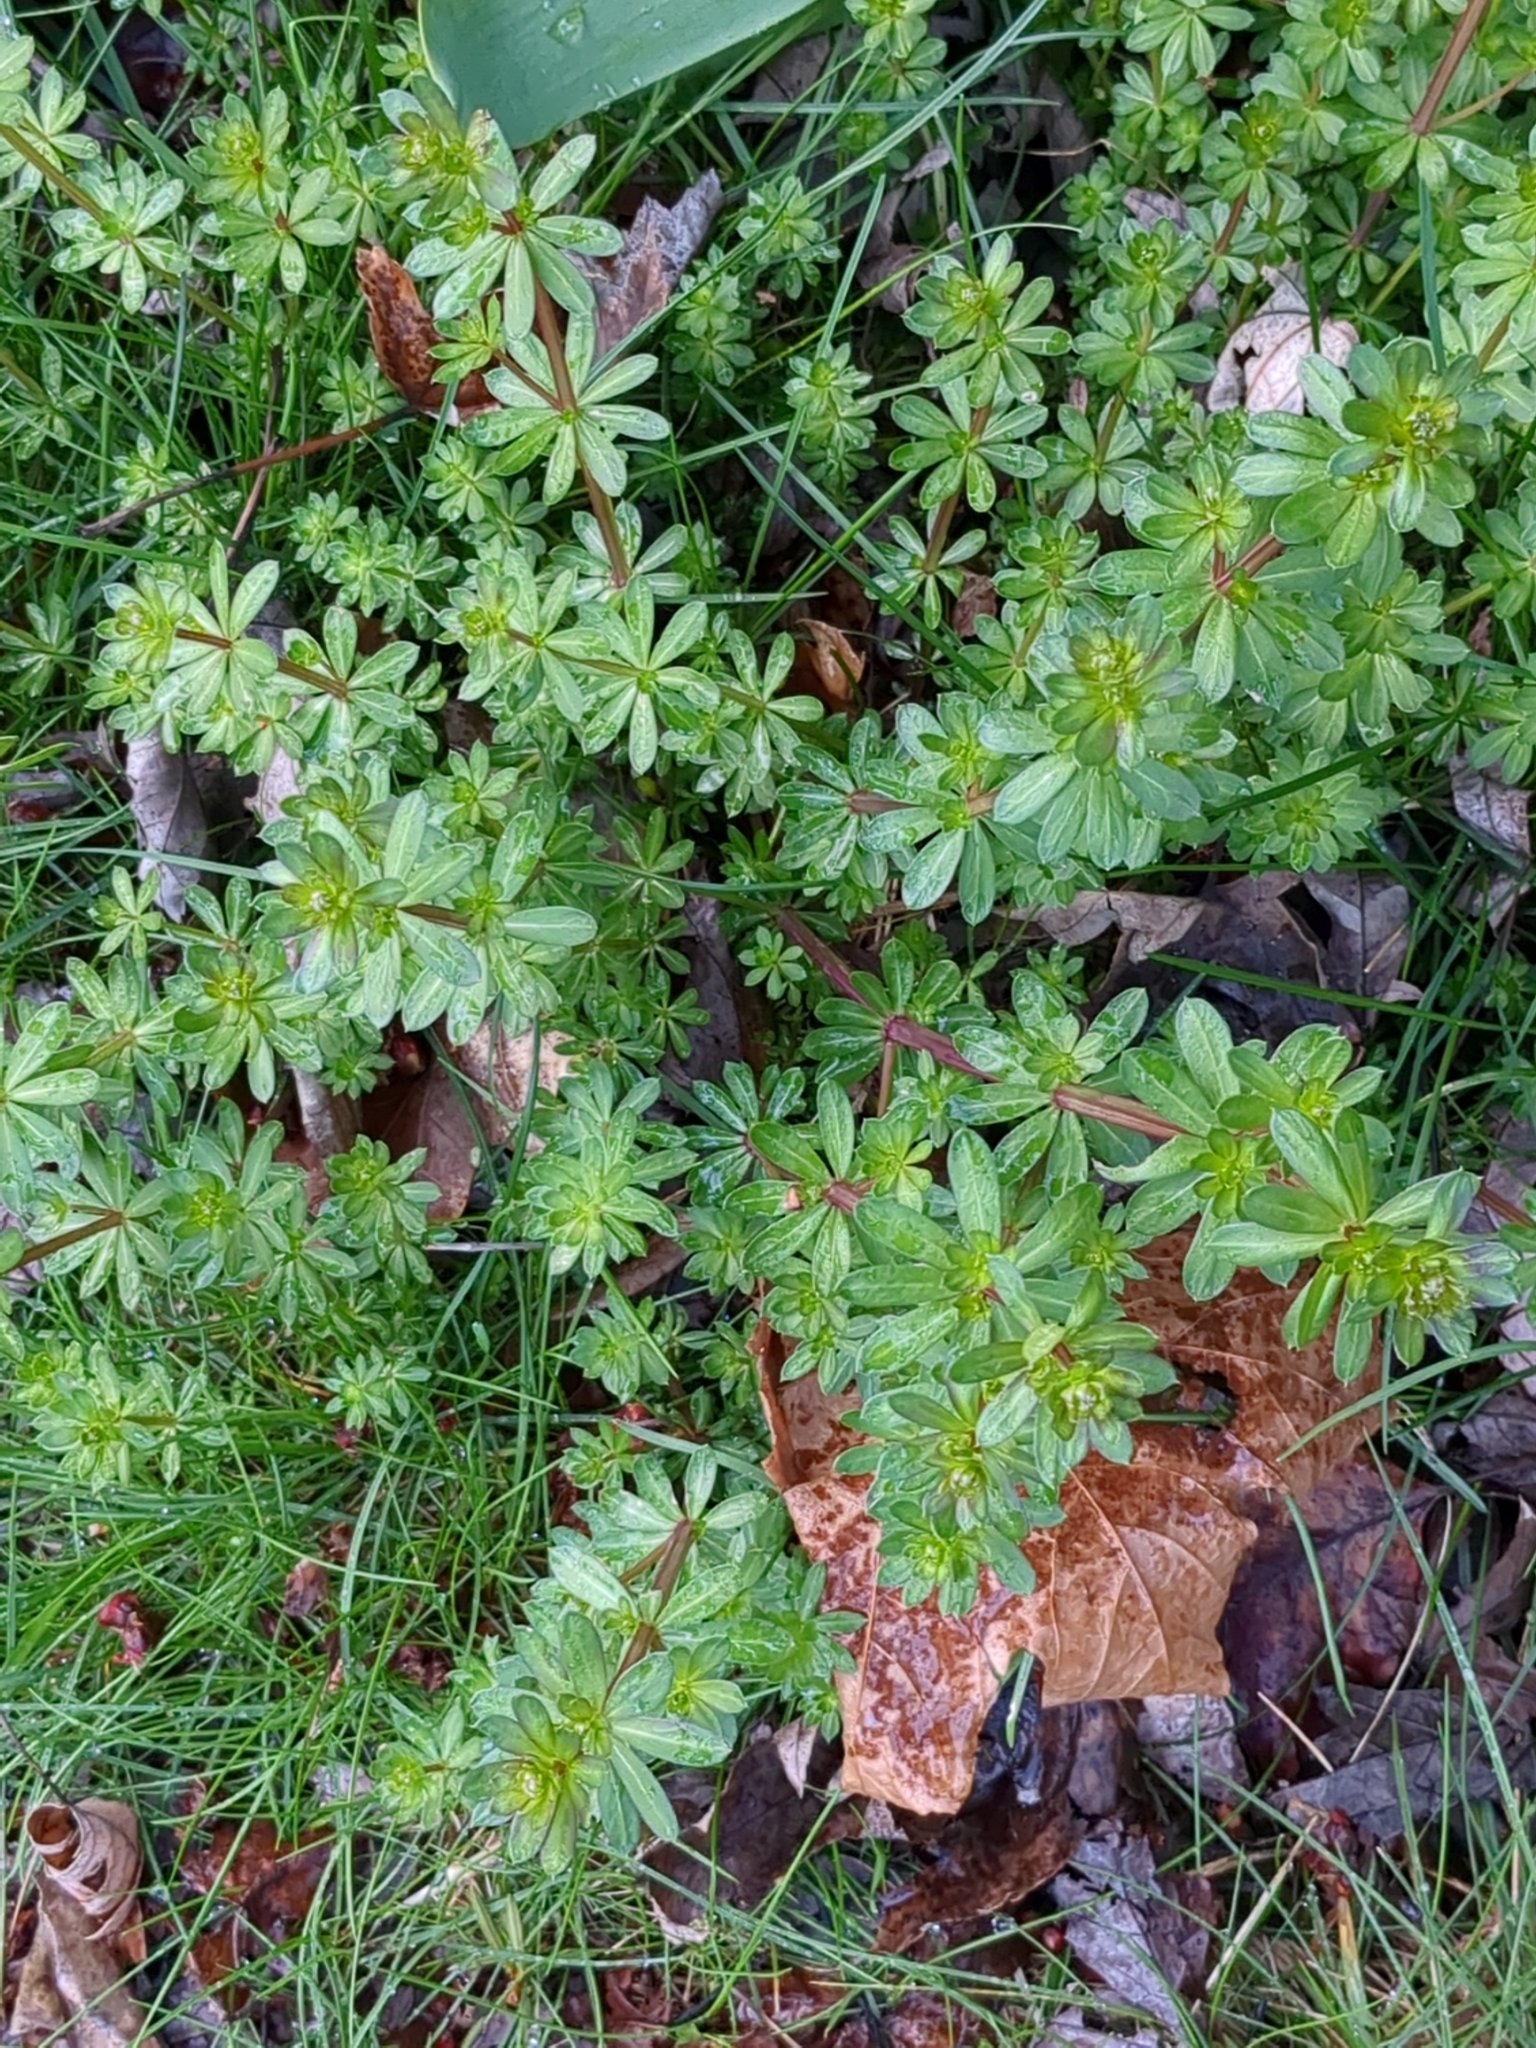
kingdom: Plantae
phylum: Tracheophyta
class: Magnoliopsida
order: Gentianales
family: Rubiaceae
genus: Galium
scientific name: Galium mollugo
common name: Hedge bedstraw
